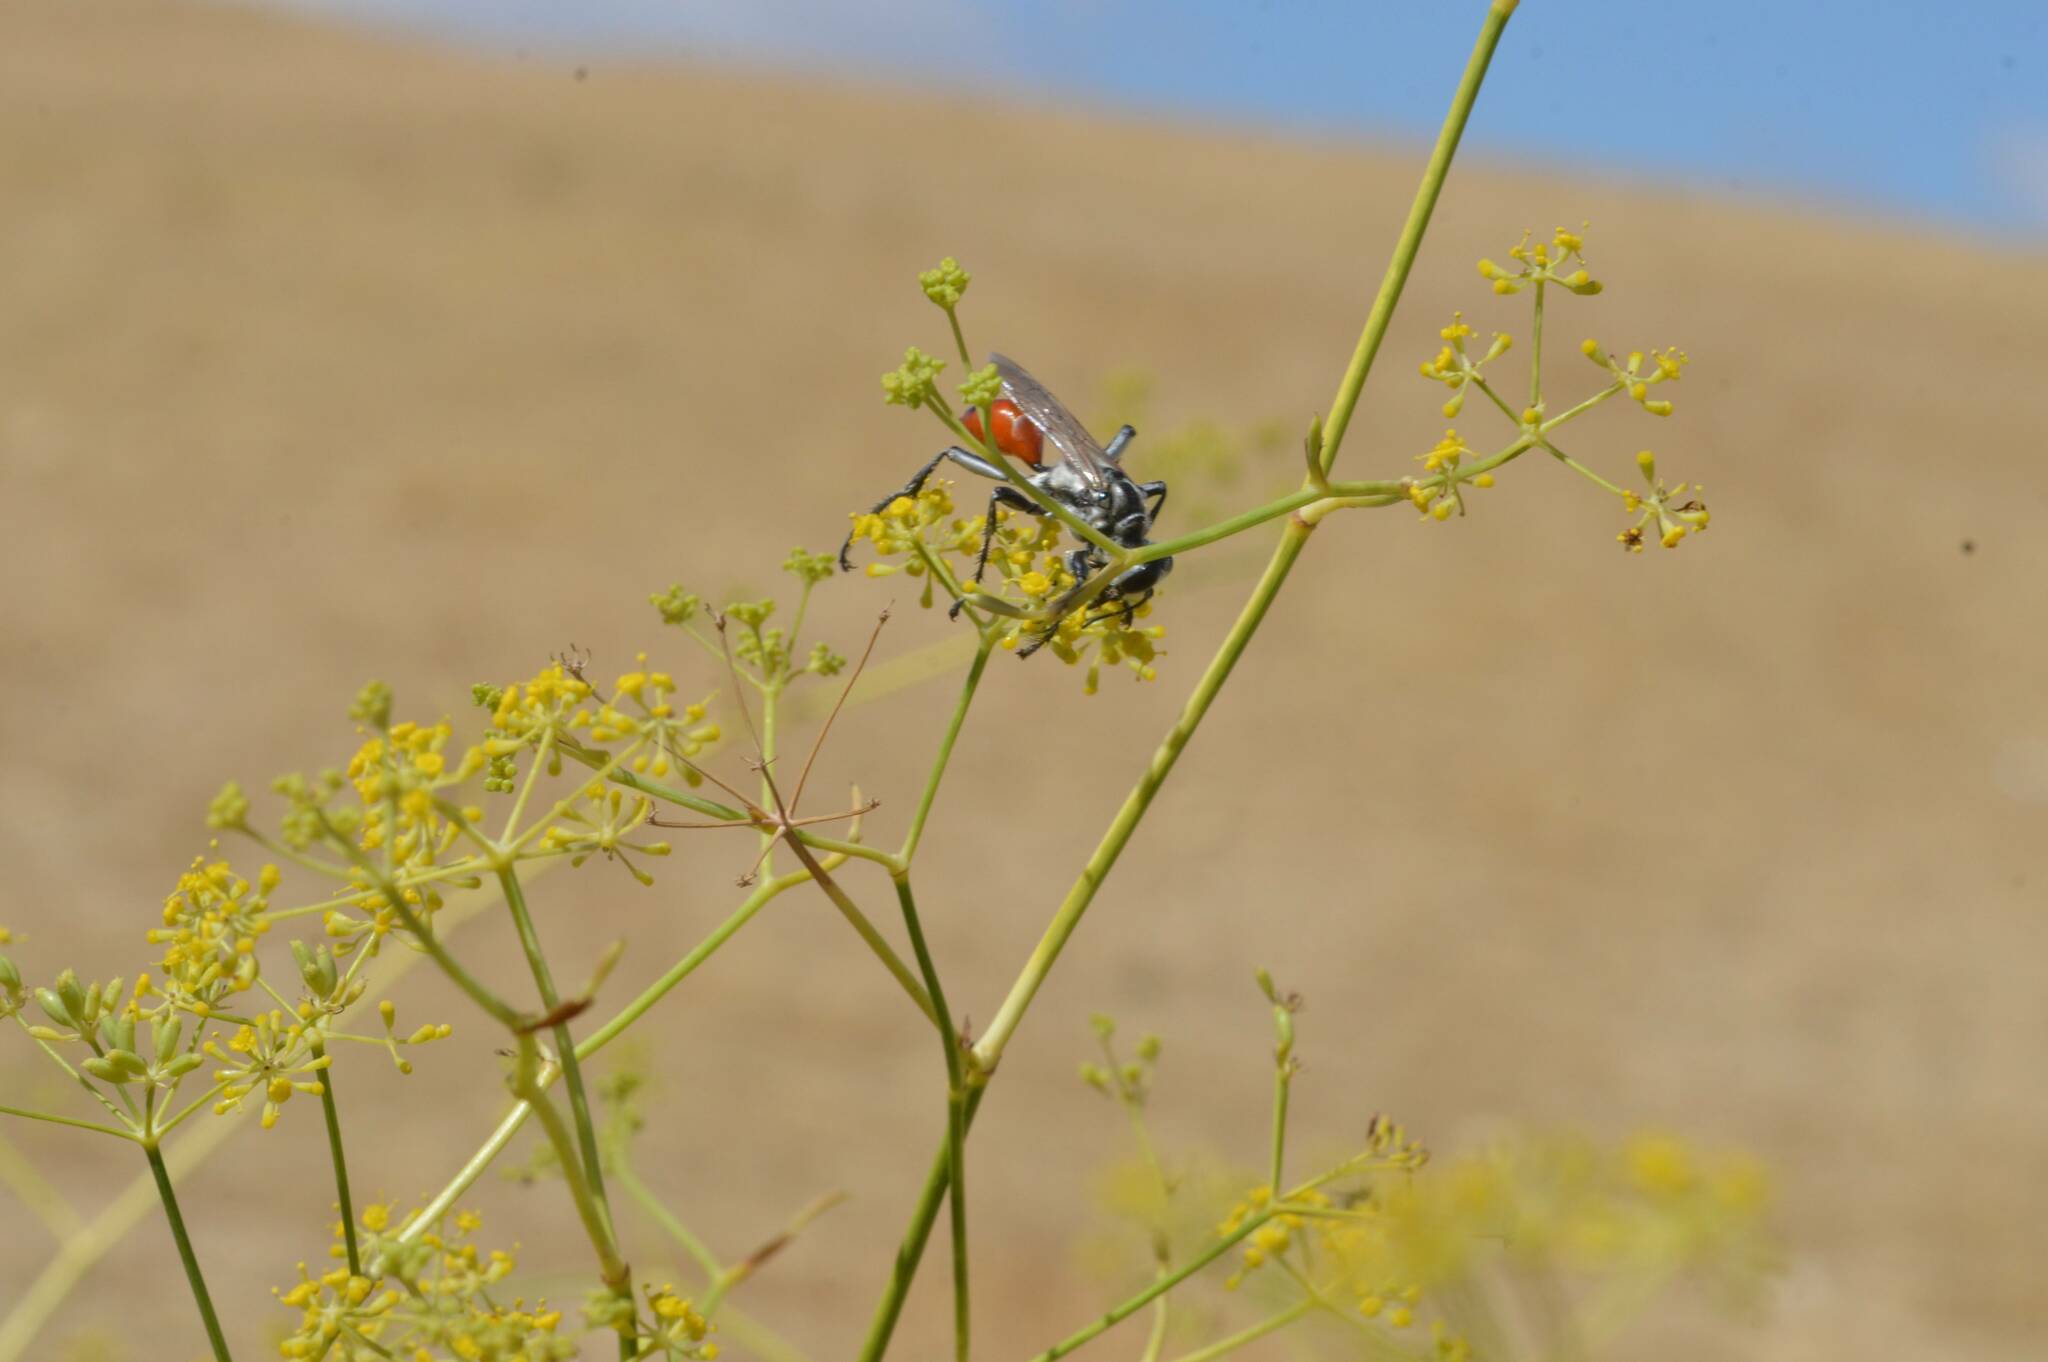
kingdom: Animalia
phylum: Arthropoda
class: Insecta
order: Hymenoptera
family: Sphecidae
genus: Prionyx
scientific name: Prionyx viduatus
